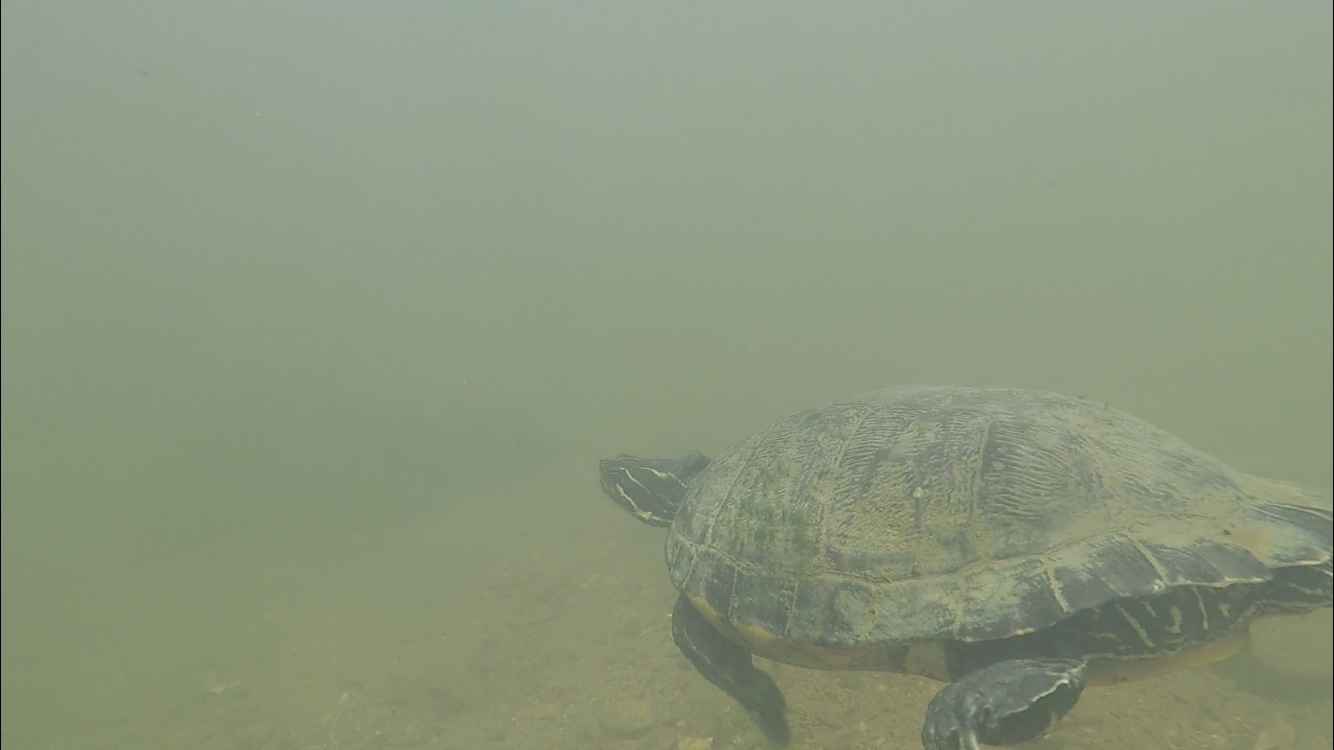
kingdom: Animalia
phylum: Chordata
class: Testudines
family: Emydidae
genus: Pseudemys
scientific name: Pseudemys concinna
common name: Eastern river cooter
